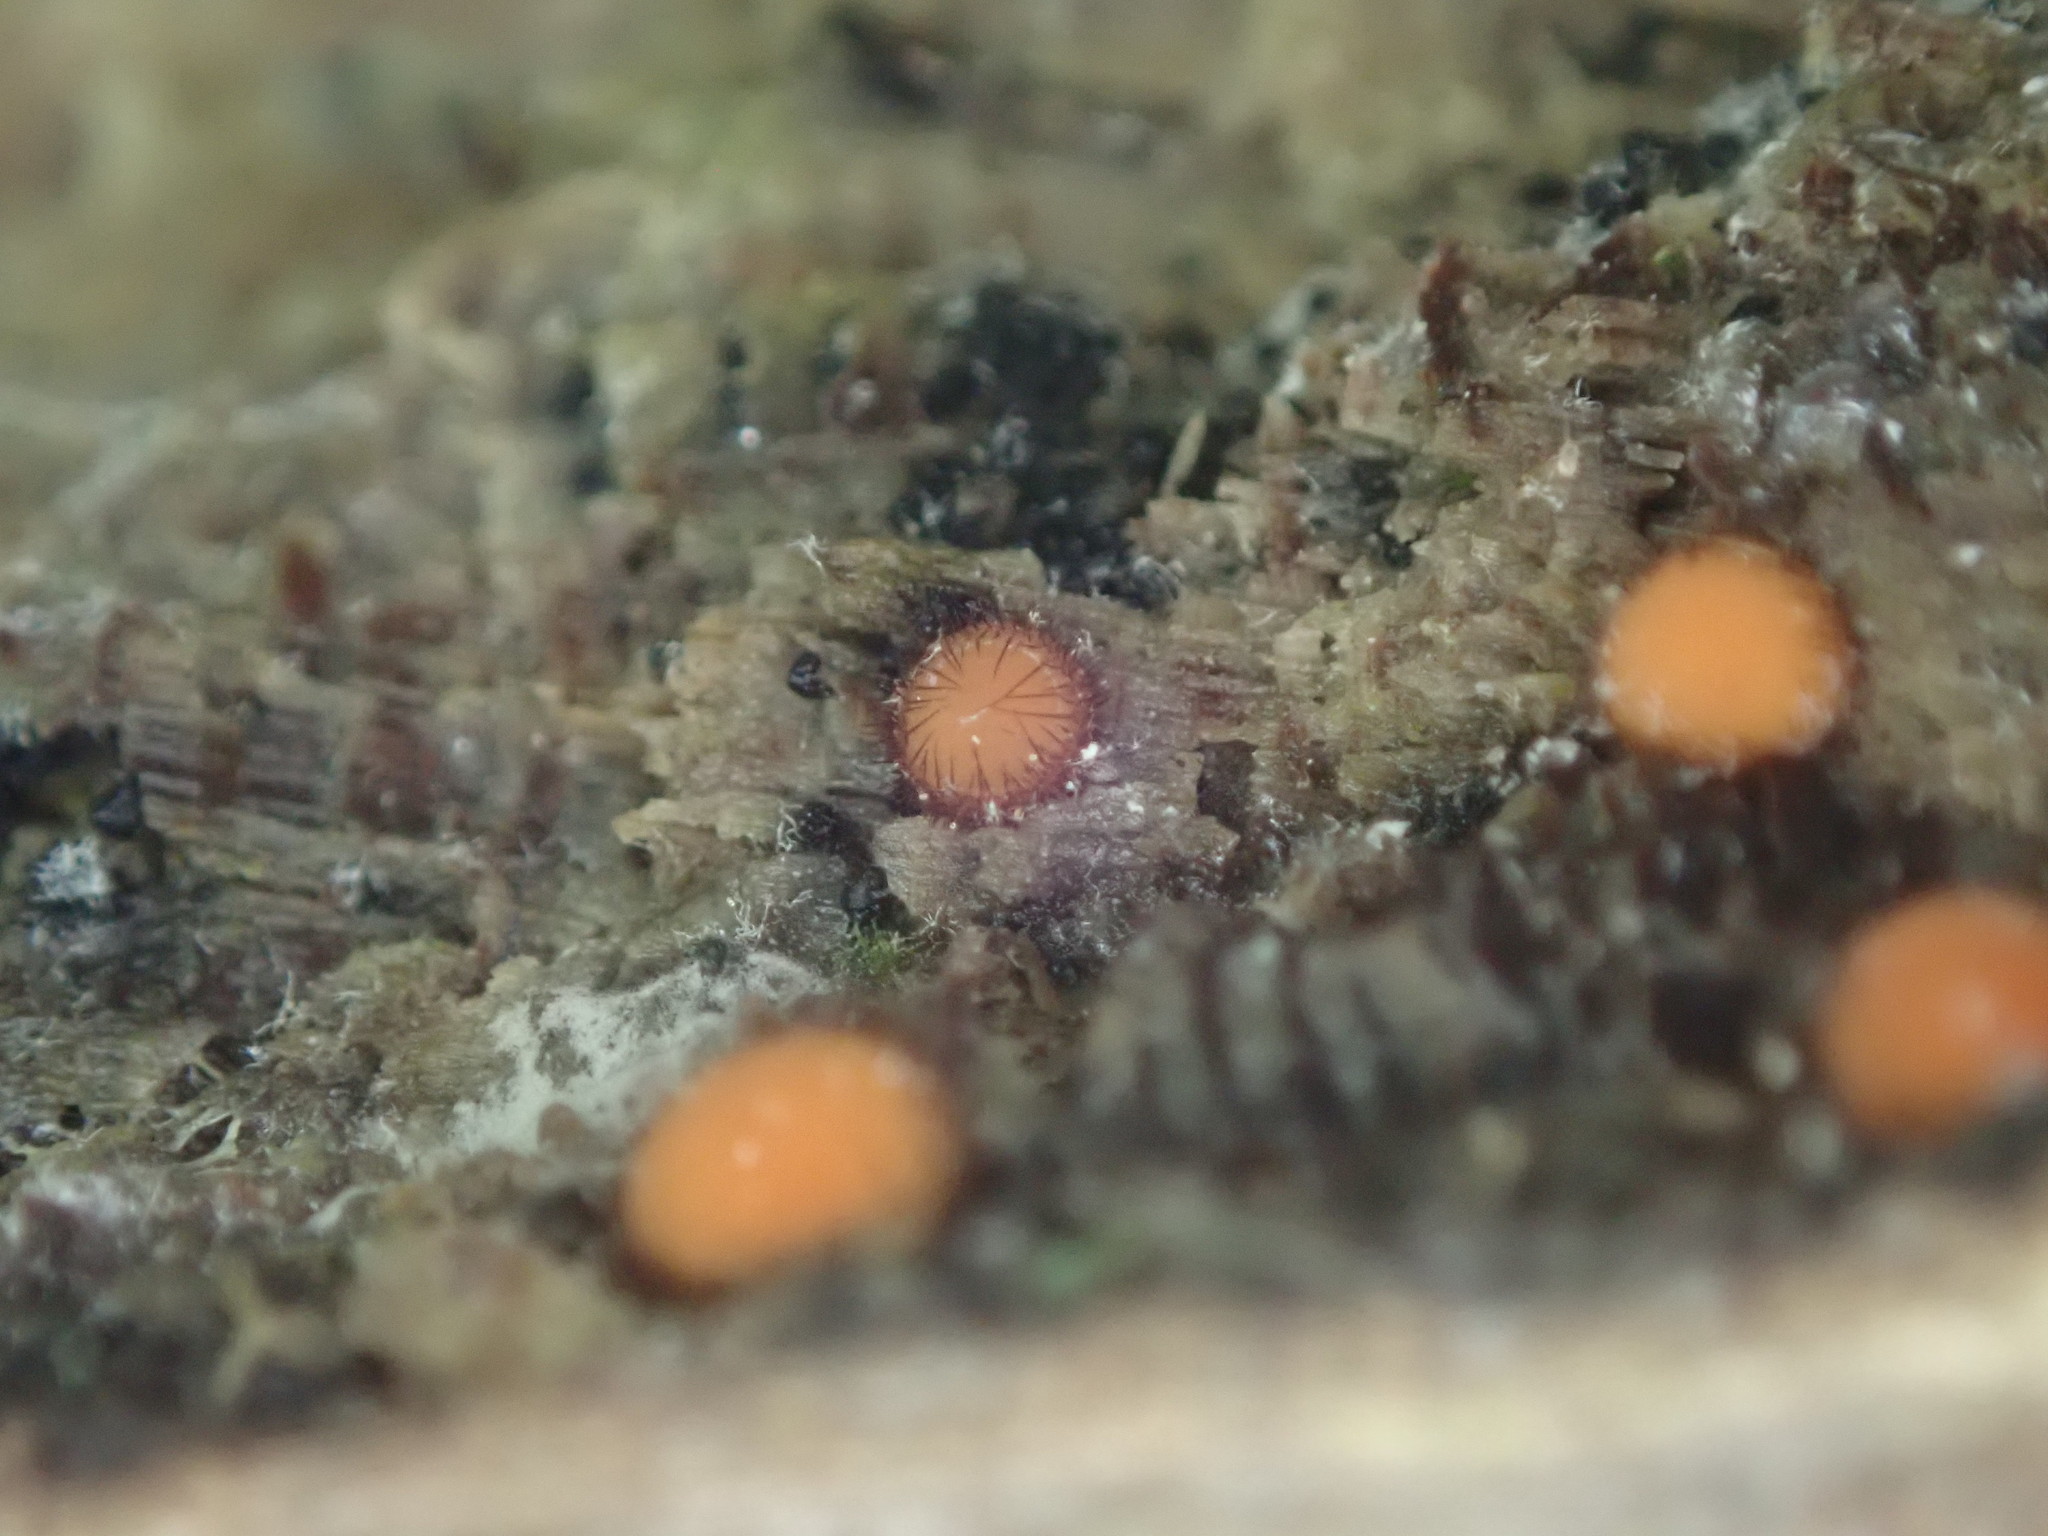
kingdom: Fungi
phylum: Ascomycota
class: Pezizomycetes
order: Pezizales
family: Pyronemataceae
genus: Scutellinia
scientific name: Scutellinia
